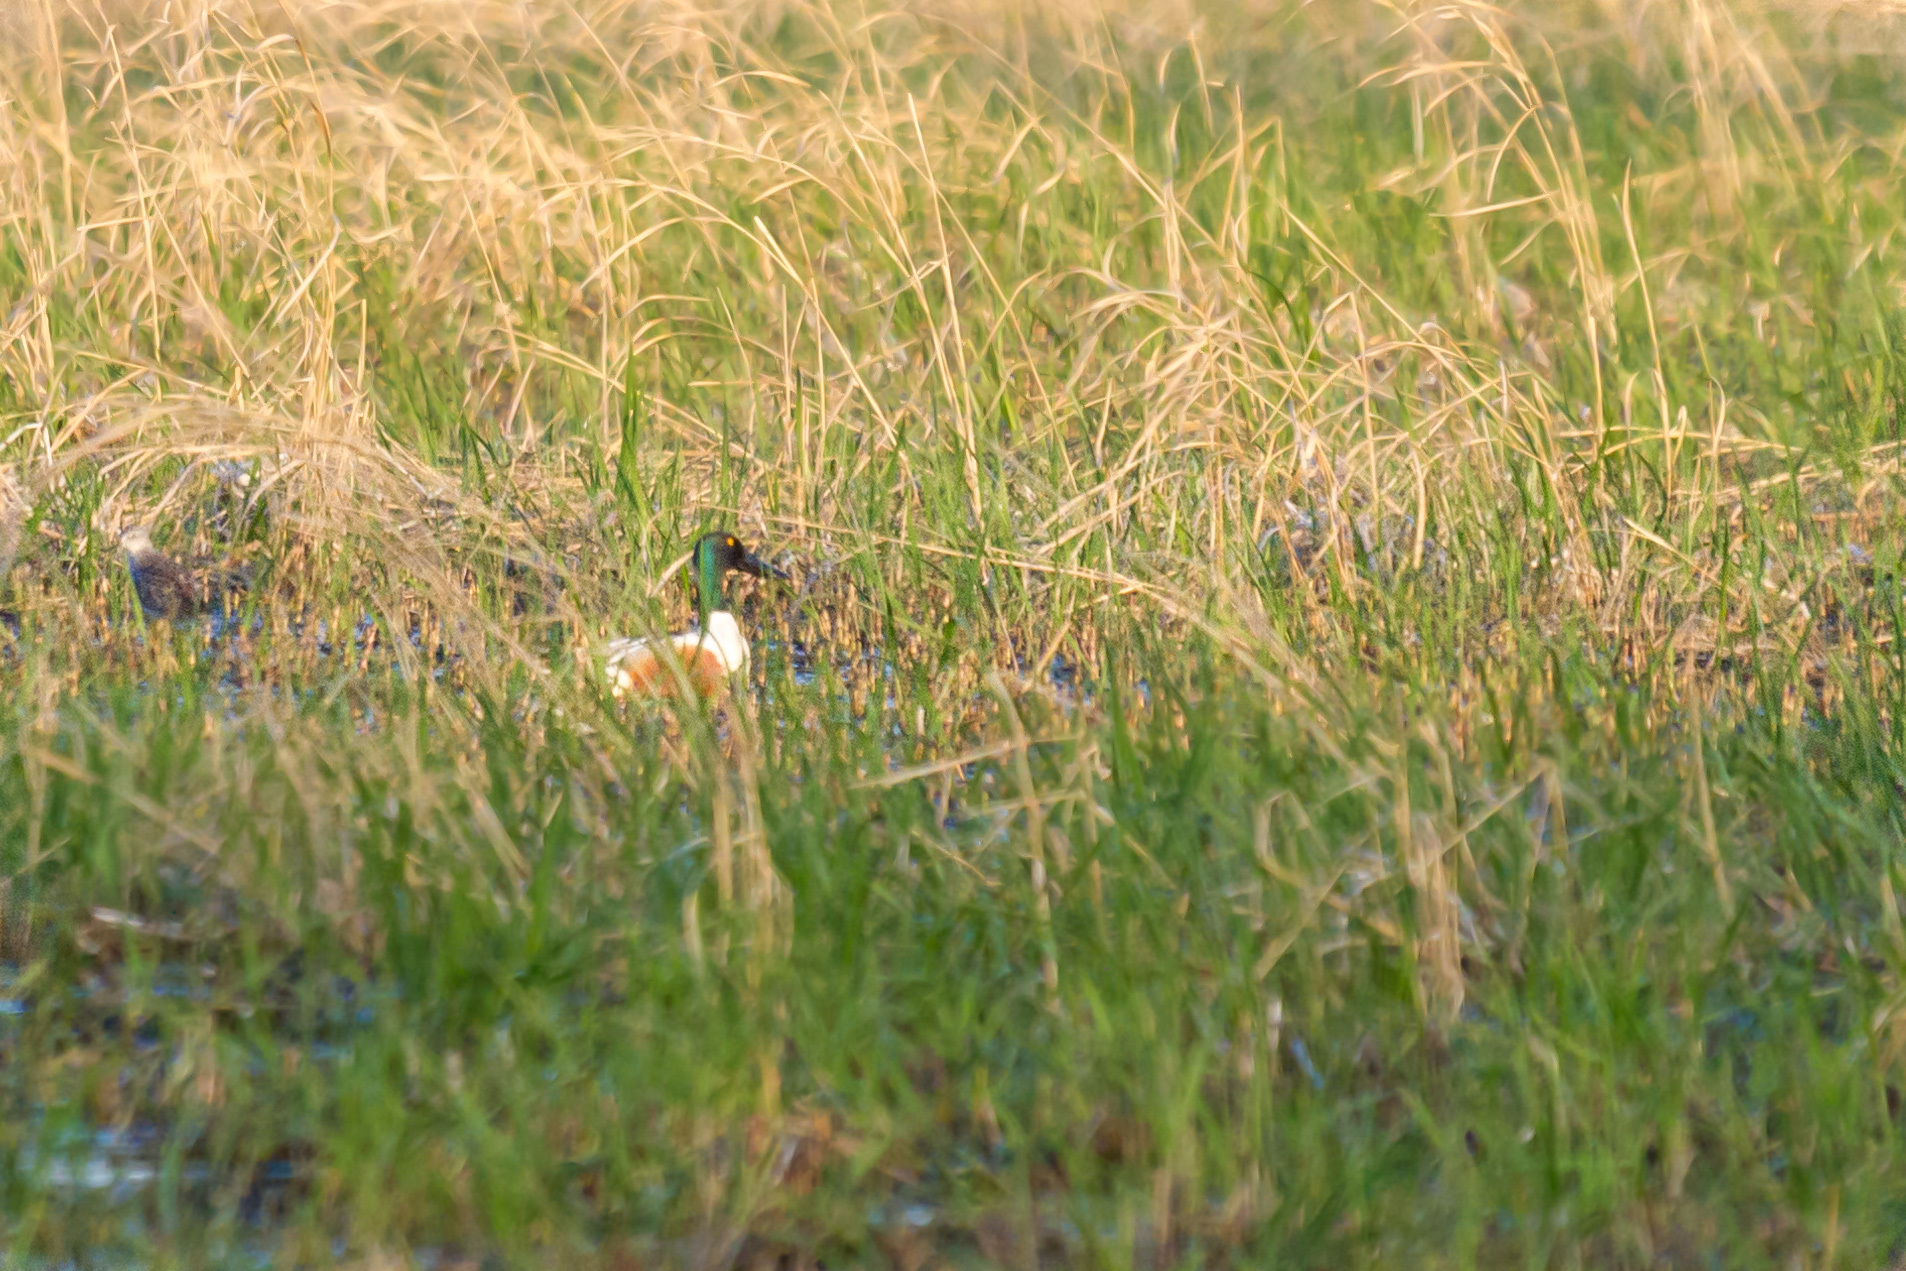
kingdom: Animalia
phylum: Chordata
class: Aves
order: Anseriformes
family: Anatidae
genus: Spatula
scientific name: Spatula clypeata
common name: Northern shoveler
